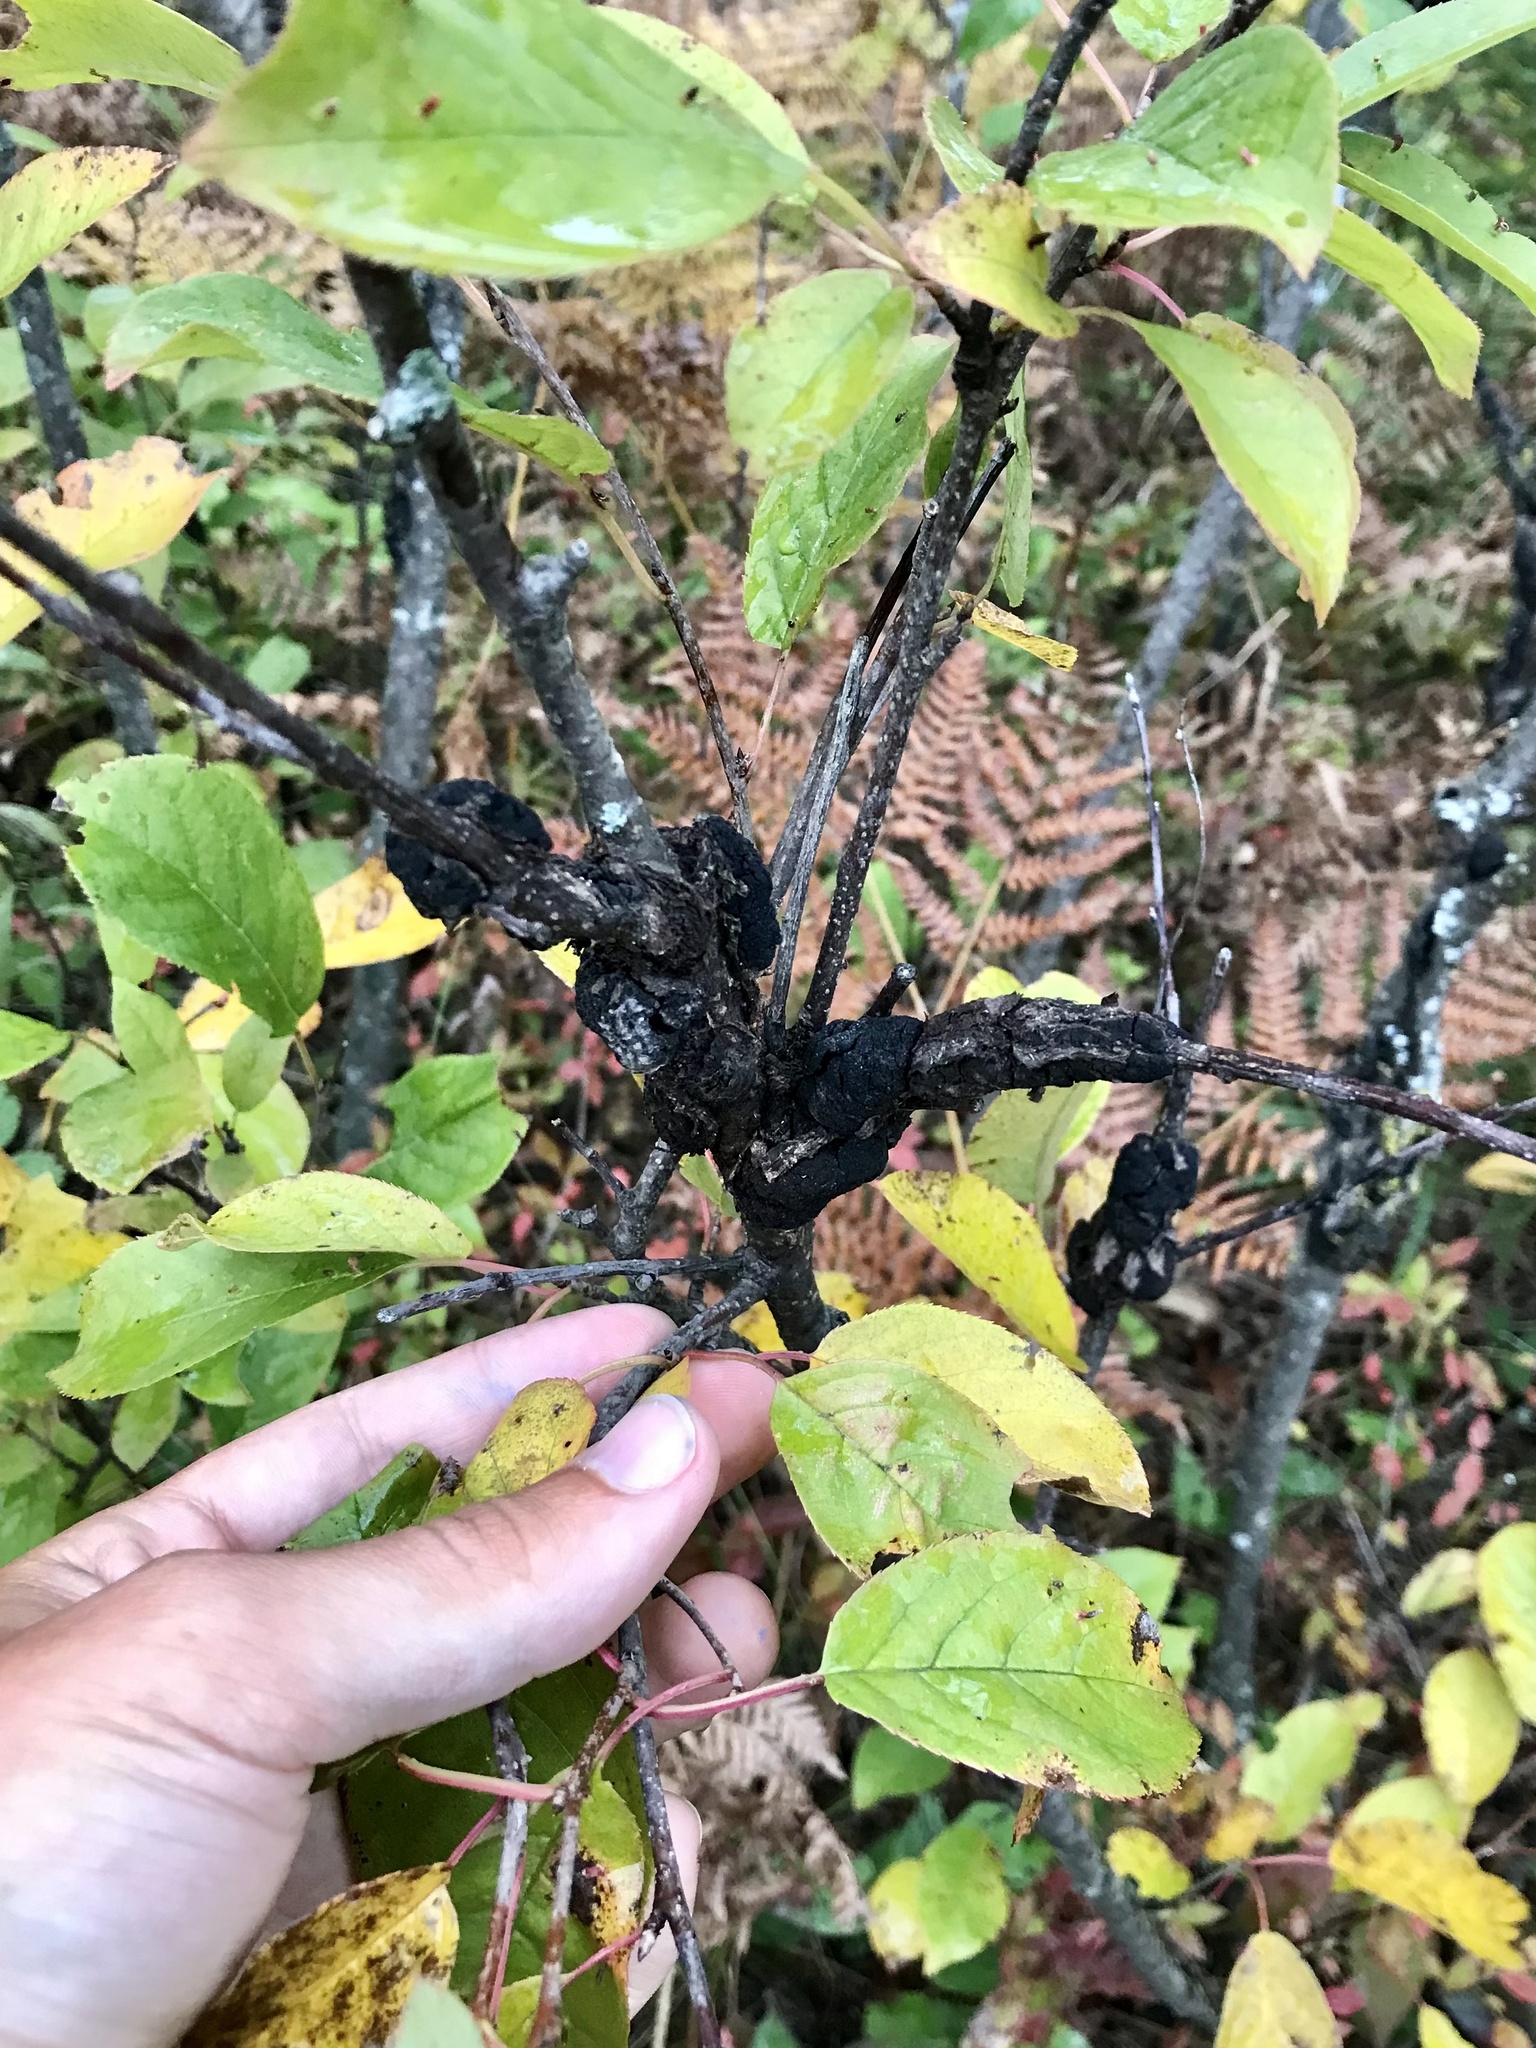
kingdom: Fungi
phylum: Ascomycota
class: Dothideomycetes
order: Venturiales
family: Venturiaceae
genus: Apiosporina
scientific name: Apiosporina morbosa
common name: Black knot
